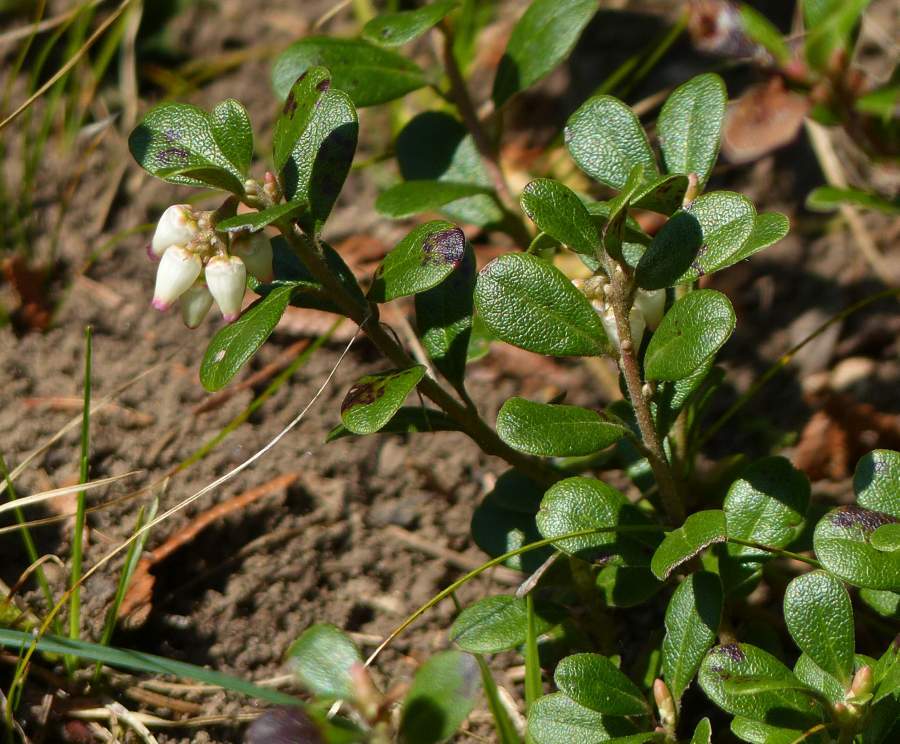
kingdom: Plantae
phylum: Tracheophyta
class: Magnoliopsida
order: Ericales
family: Ericaceae
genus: Arctostaphylos
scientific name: Arctostaphylos uva-ursi
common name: Bearberry
